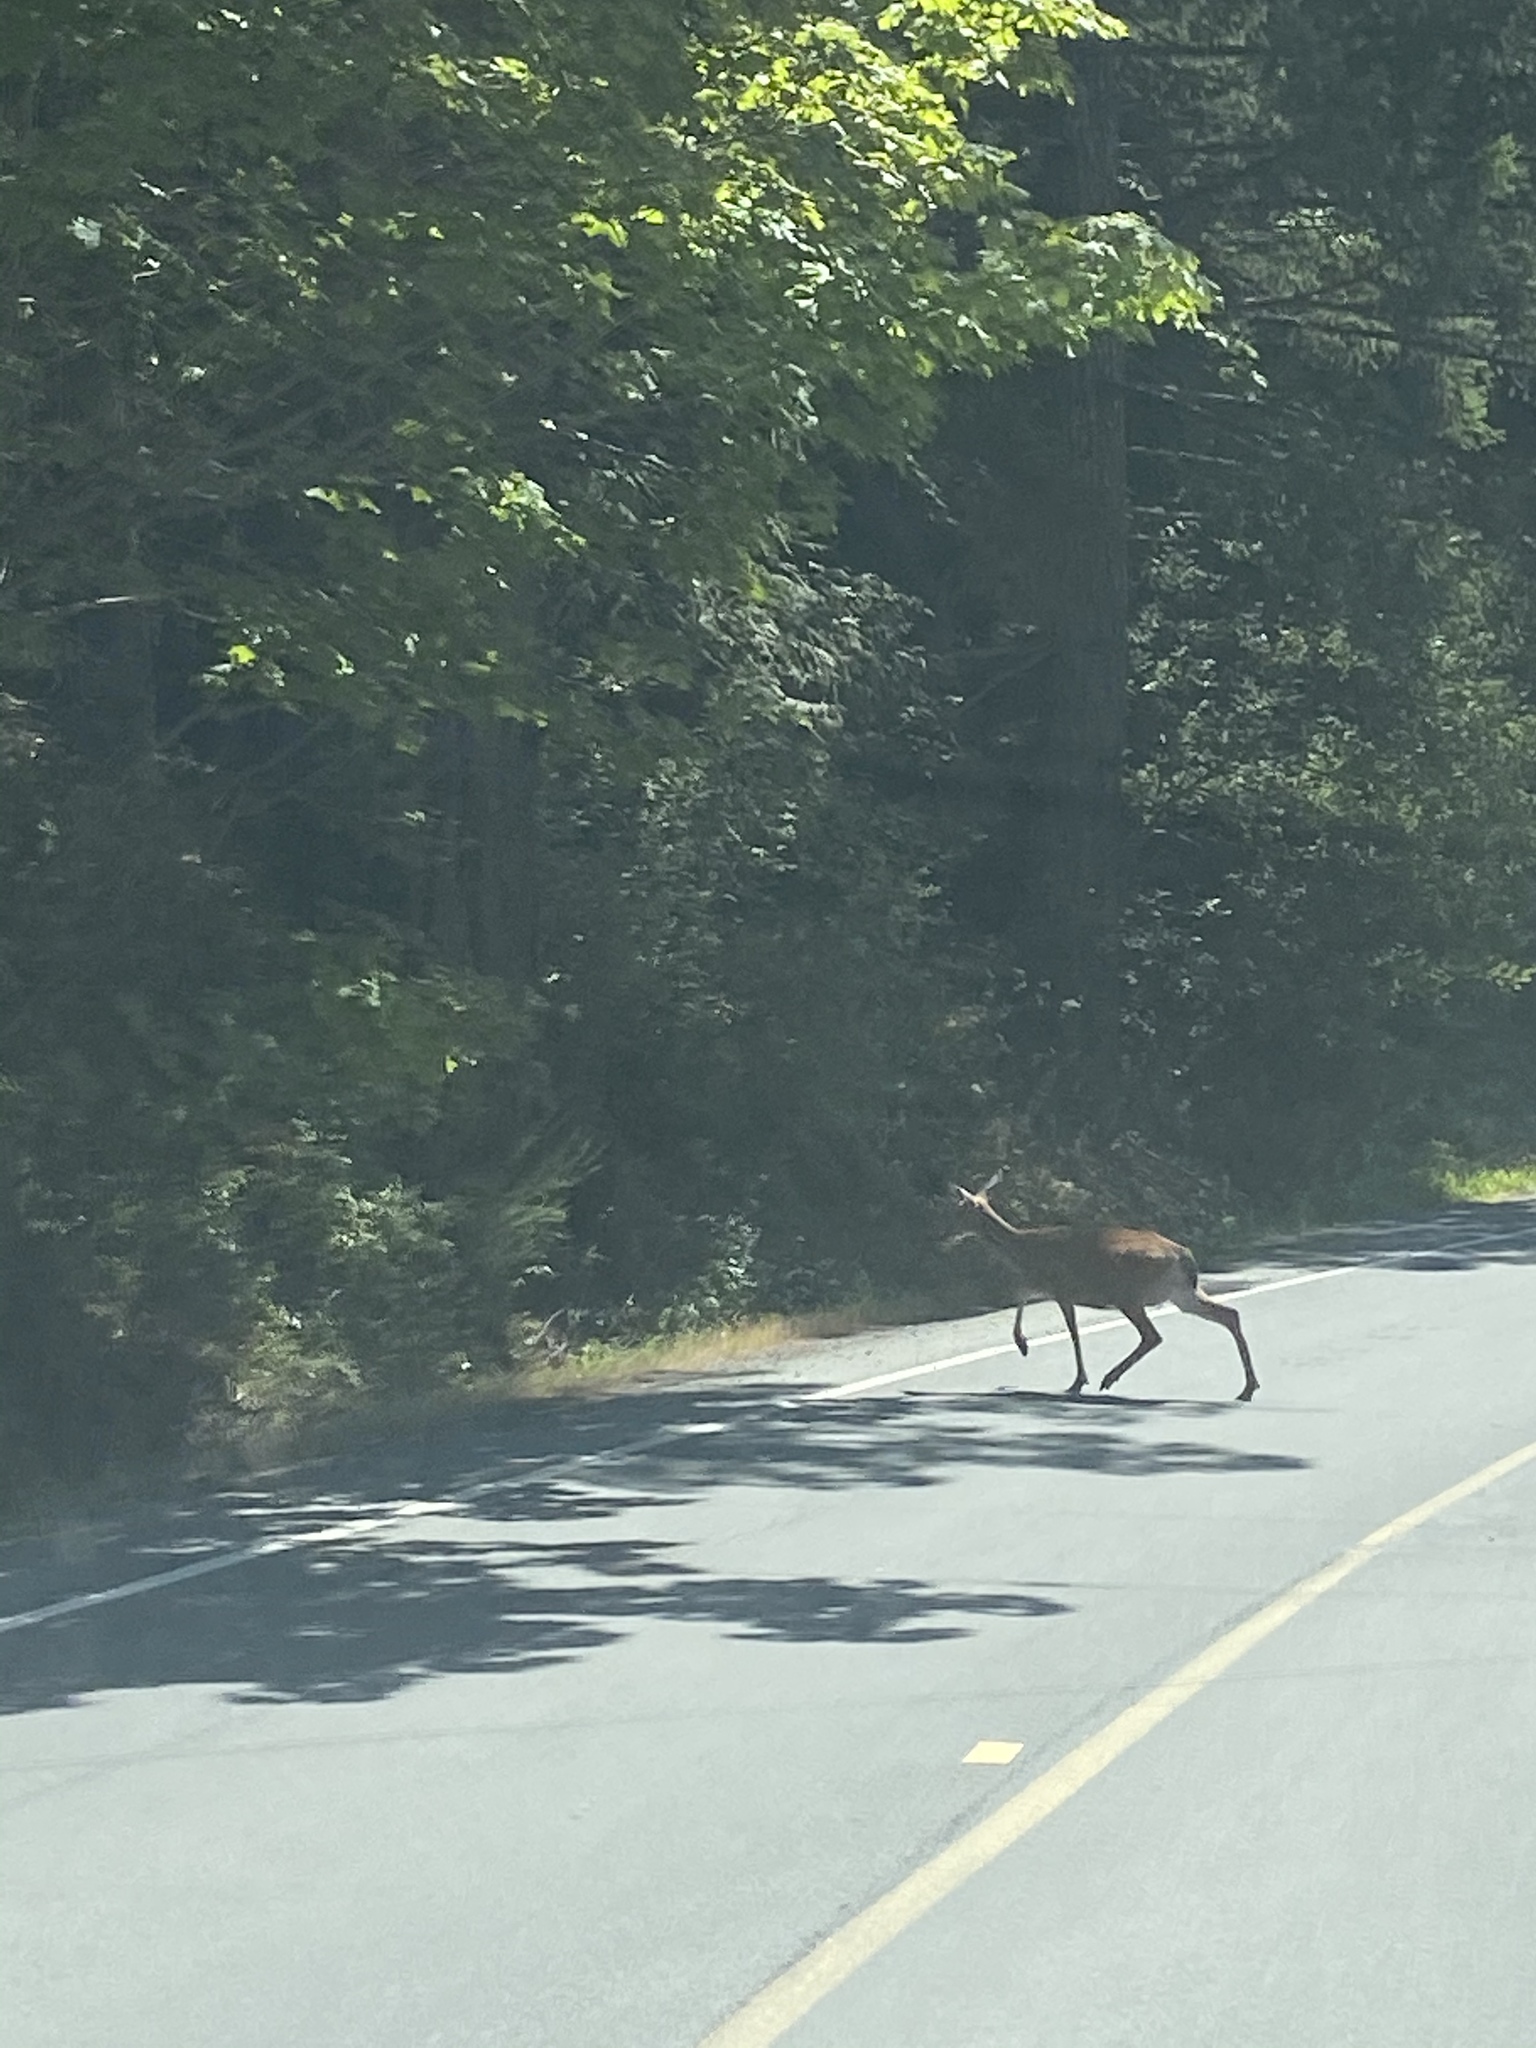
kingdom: Animalia
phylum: Chordata
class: Mammalia
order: Artiodactyla
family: Cervidae
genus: Odocoileus
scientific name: Odocoileus hemionus
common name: Mule deer
